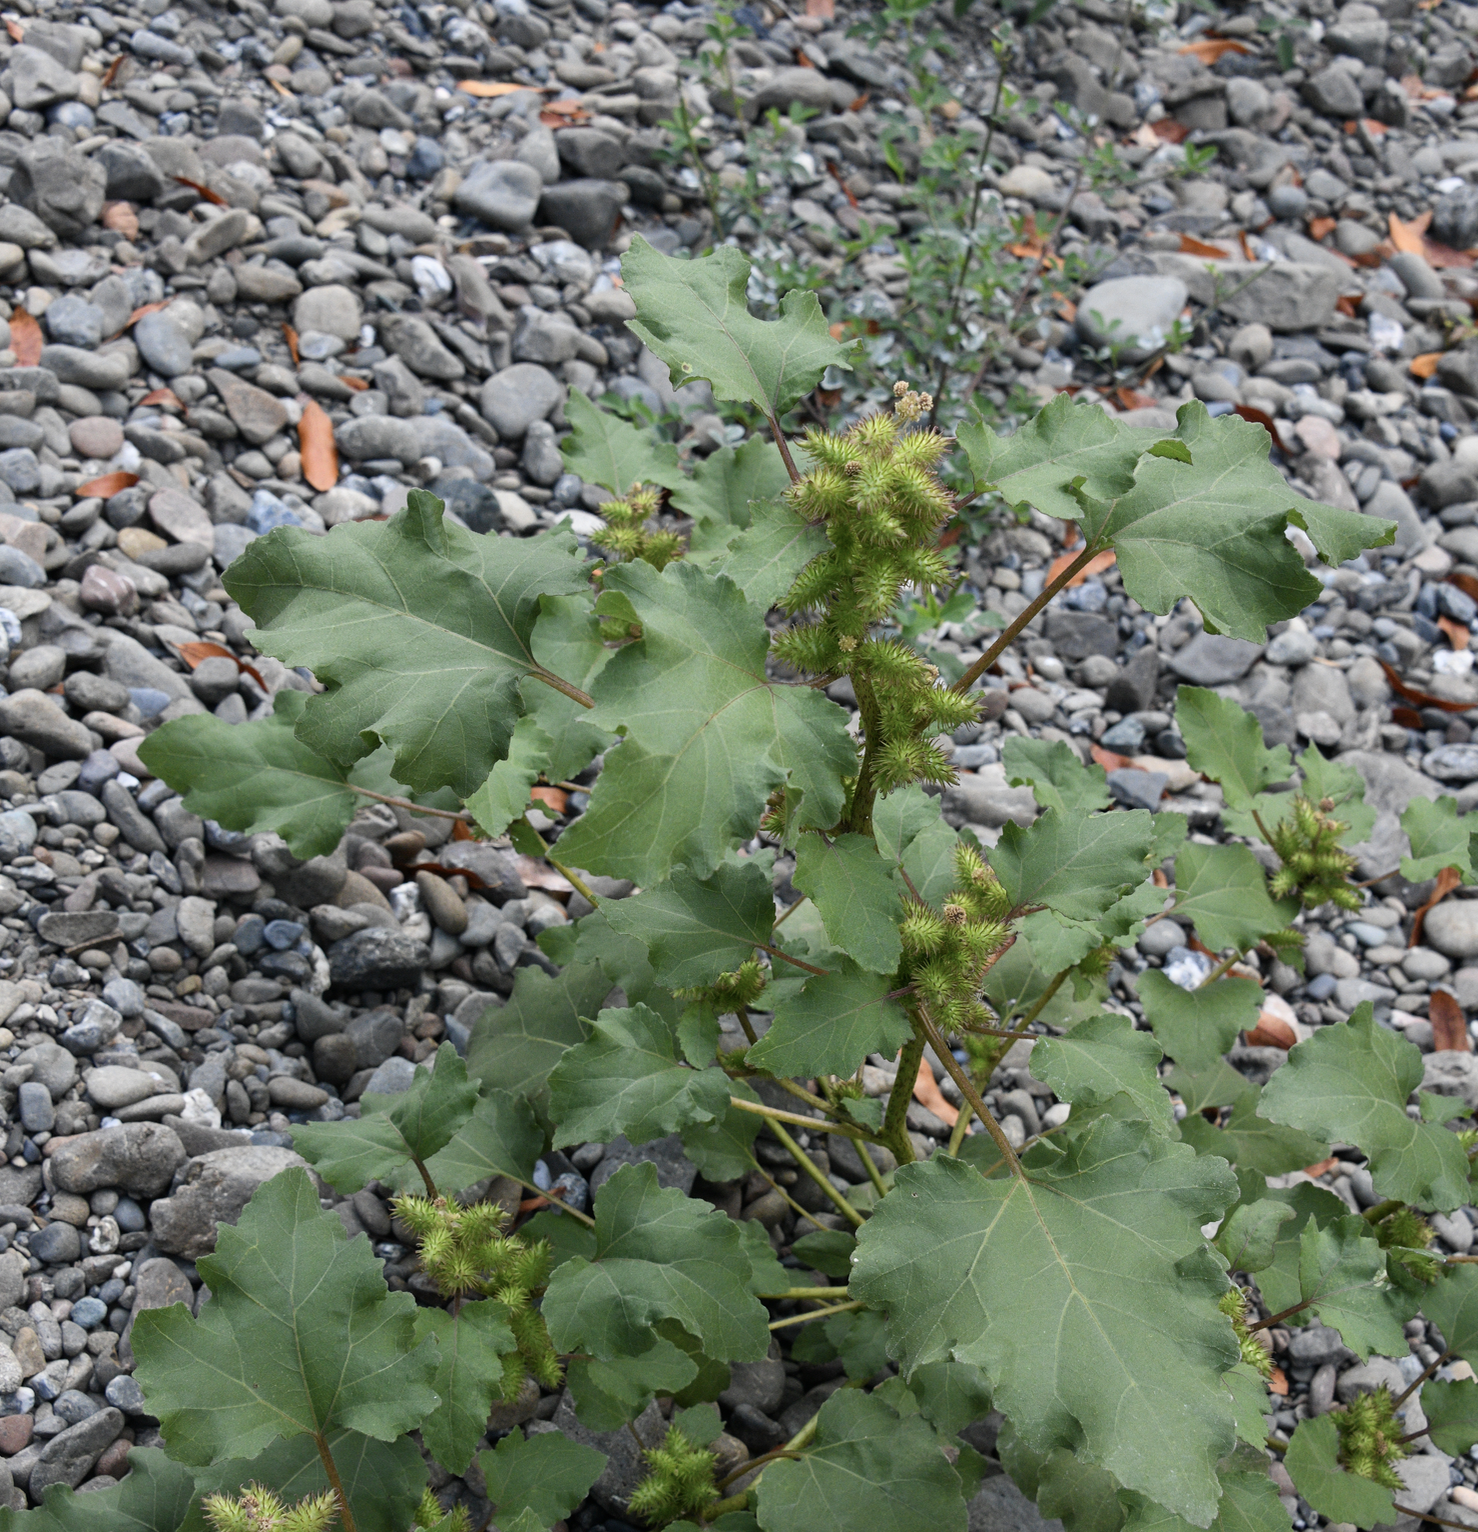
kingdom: Plantae
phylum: Tracheophyta
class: Magnoliopsida
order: Asterales
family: Asteraceae
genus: Xanthium
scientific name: Xanthium strumarium
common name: Rough cocklebur
